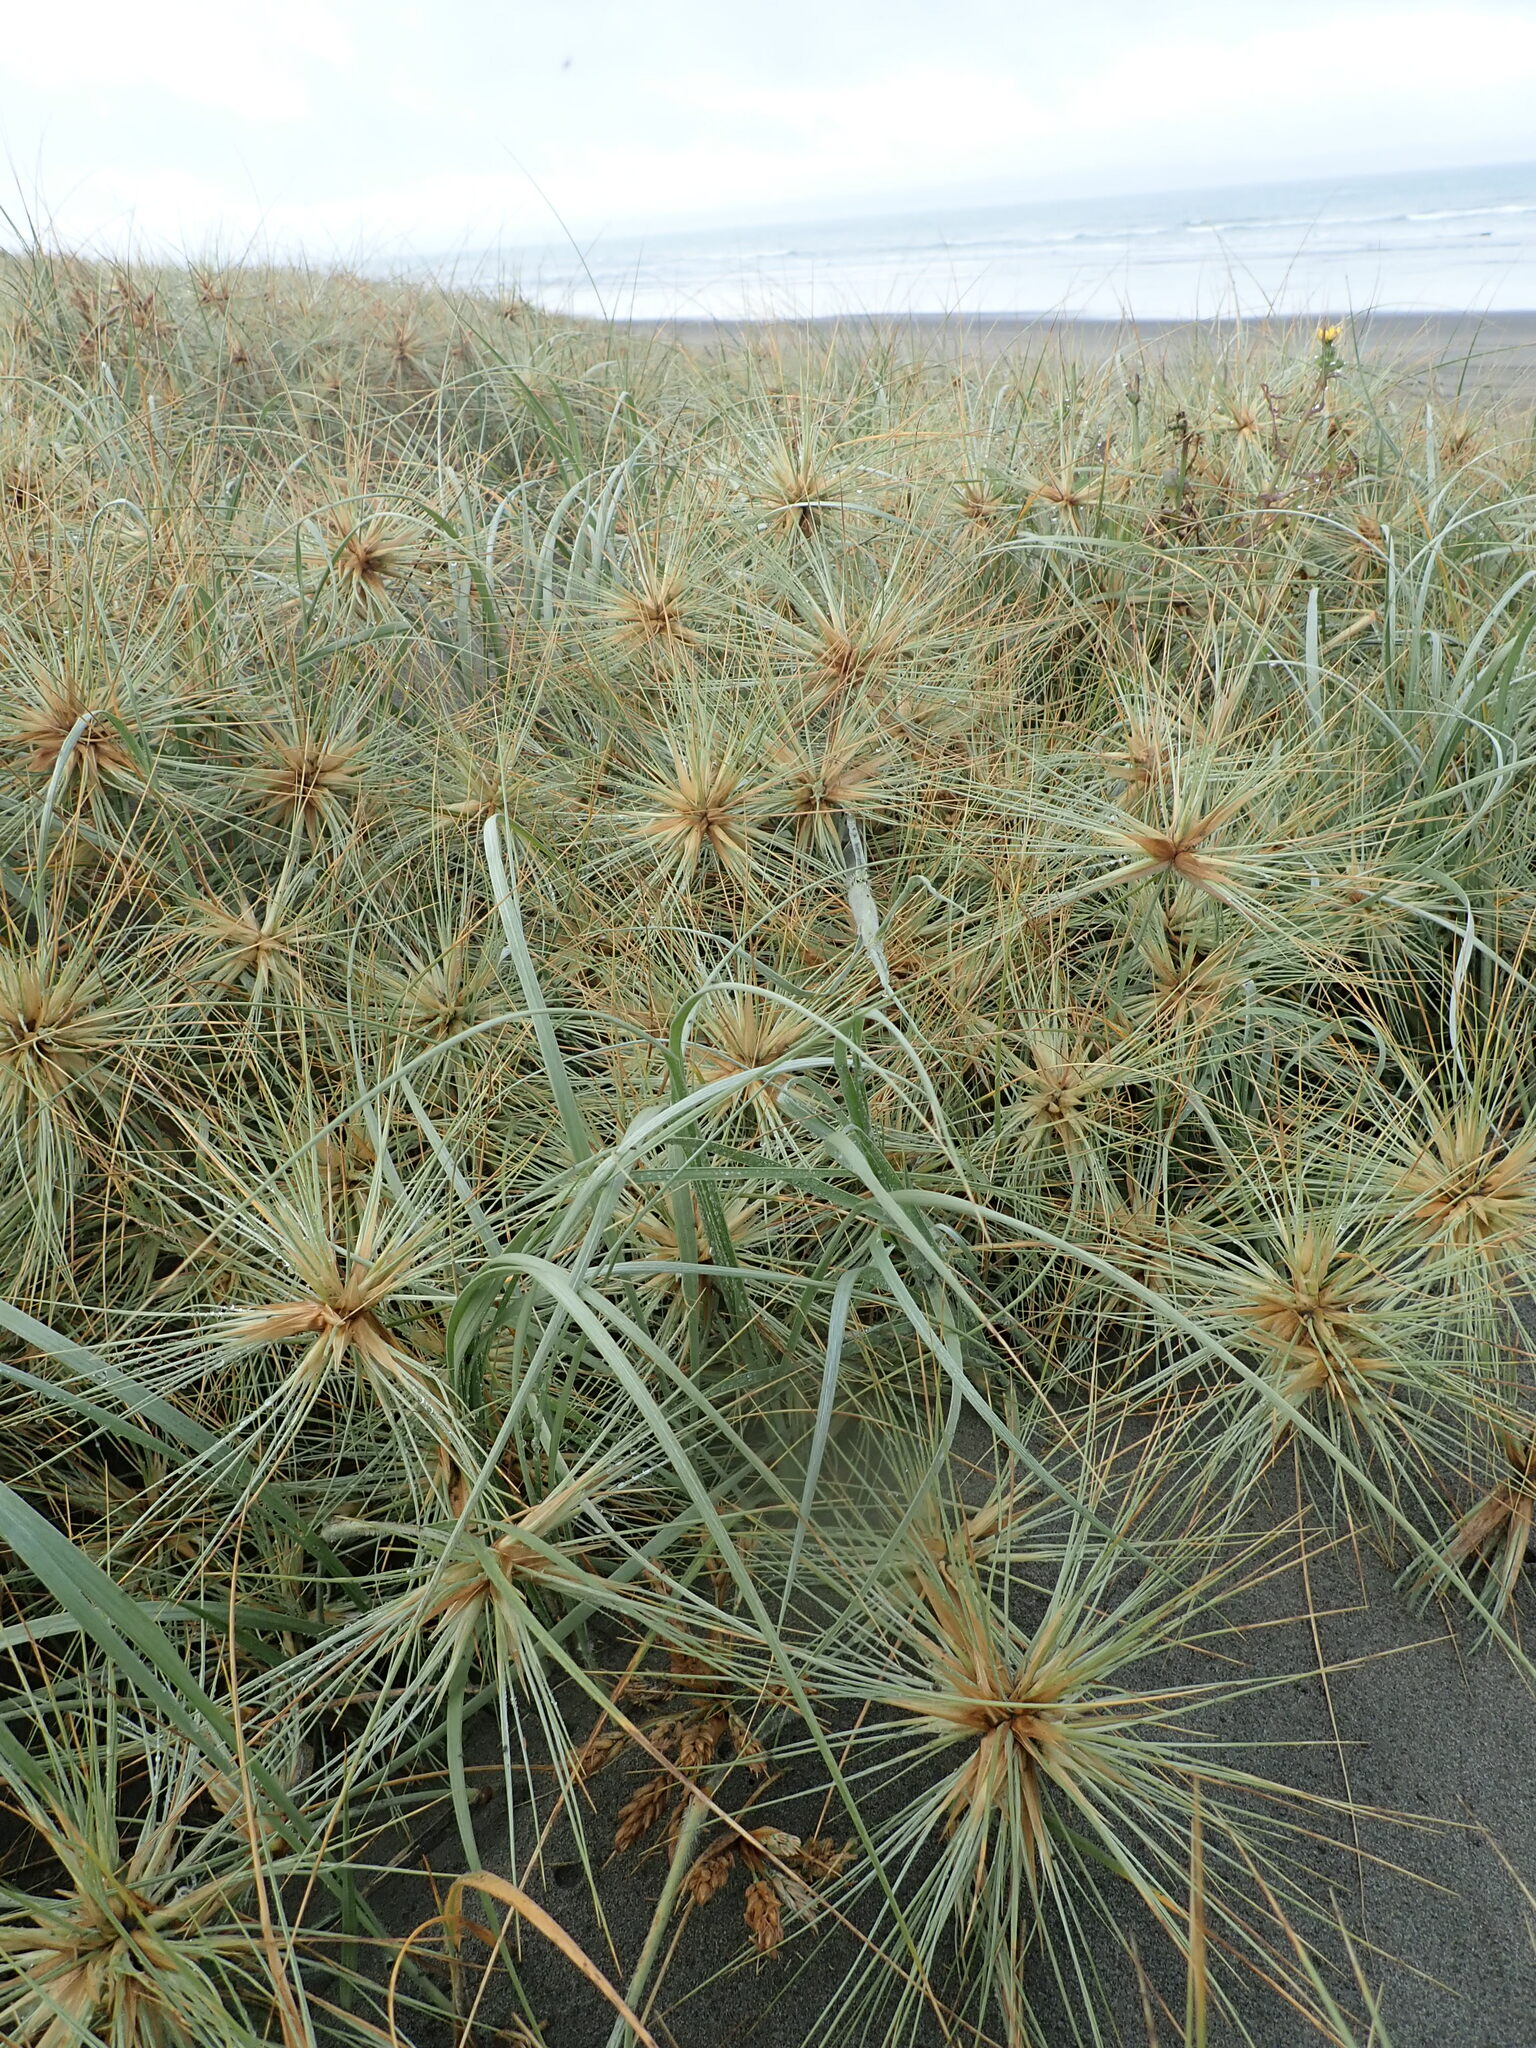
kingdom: Plantae
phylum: Tracheophyta
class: Liliopsida
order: Poales
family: Poaceae
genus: Spinifex
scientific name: Spinifex sericeus
